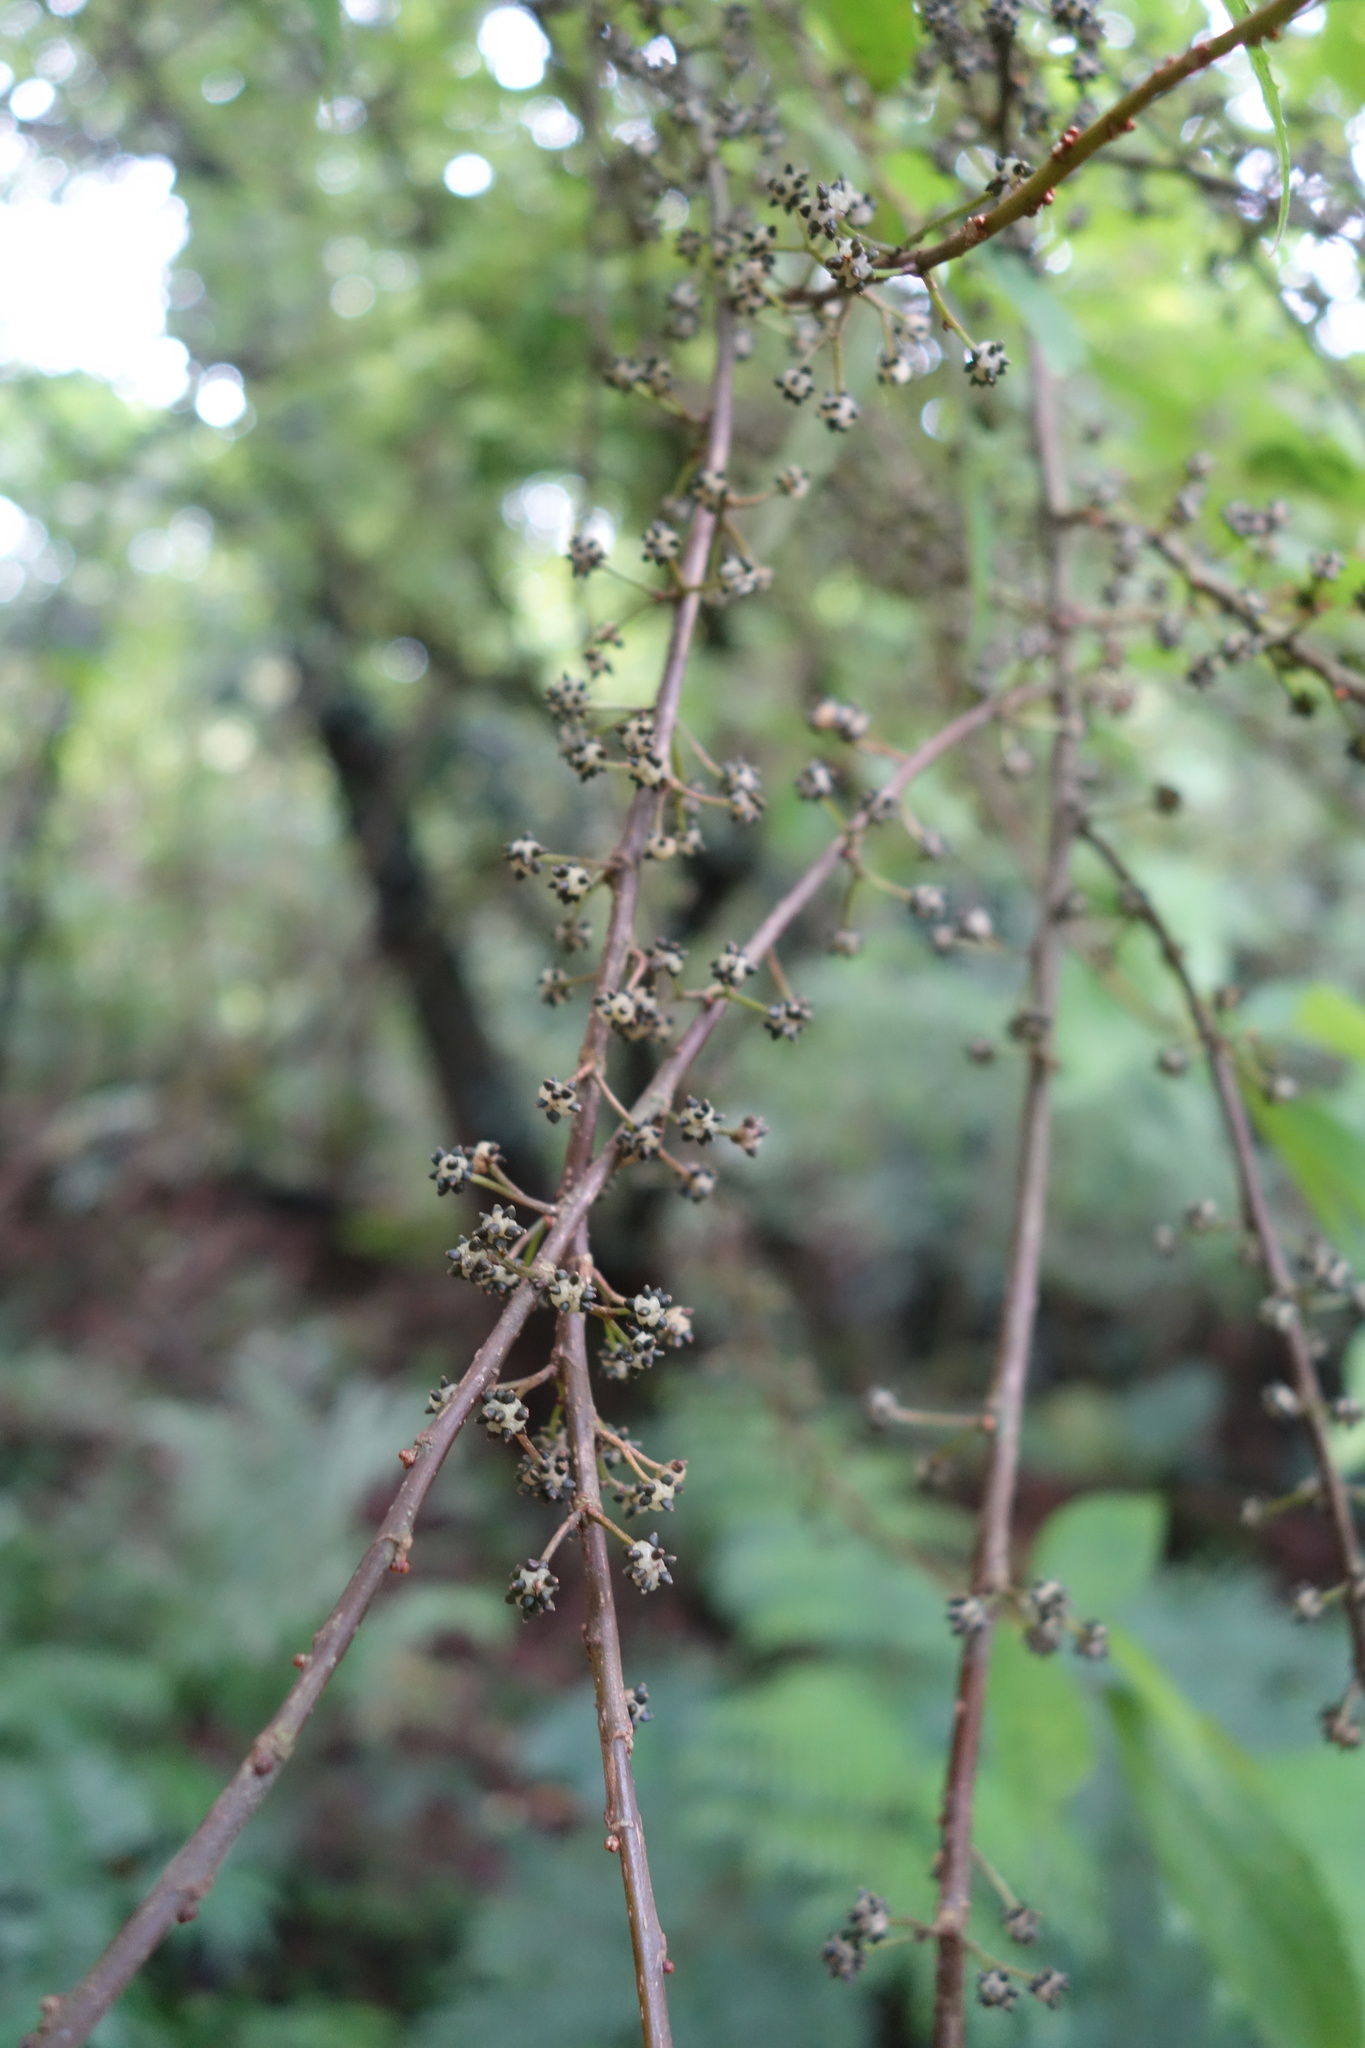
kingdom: Plantae
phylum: Tracheophyta
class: Magnoliopsida
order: Rosales
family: Urticaceae
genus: Oreocnide
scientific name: Oreocnide pedunculata
